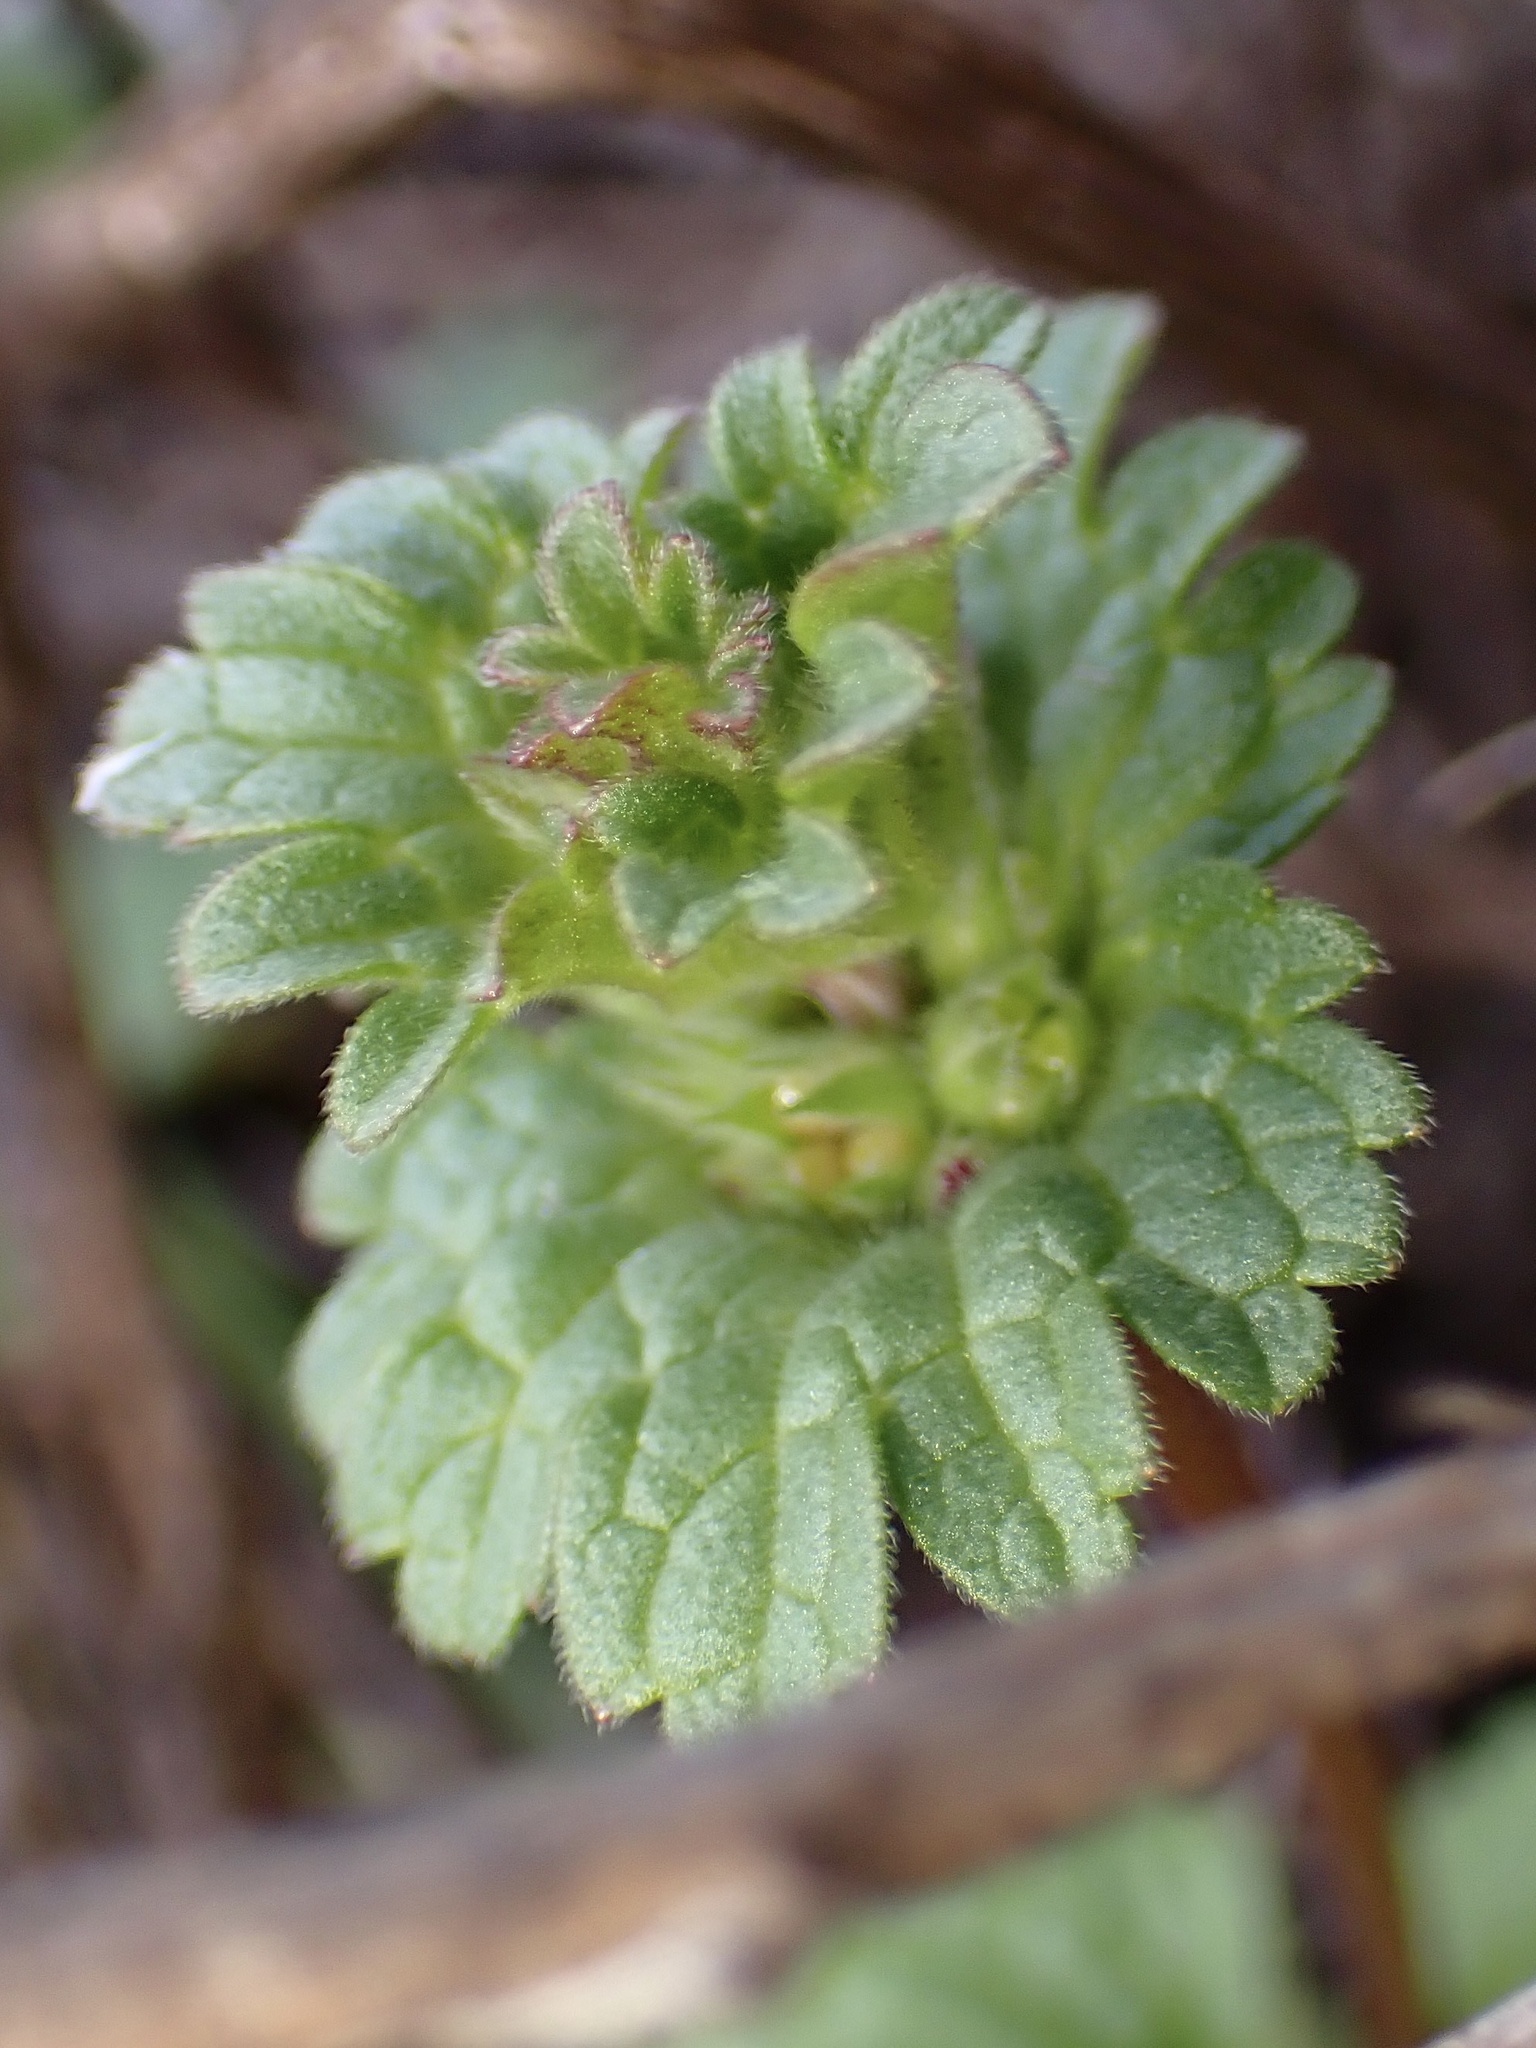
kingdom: Plantae
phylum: Tracheophyta
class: Magnoliopsida
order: Lamiales
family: Lamiaceae
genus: Lamium
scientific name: Lamium amplexicaule
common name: Henbit dead-nettle
